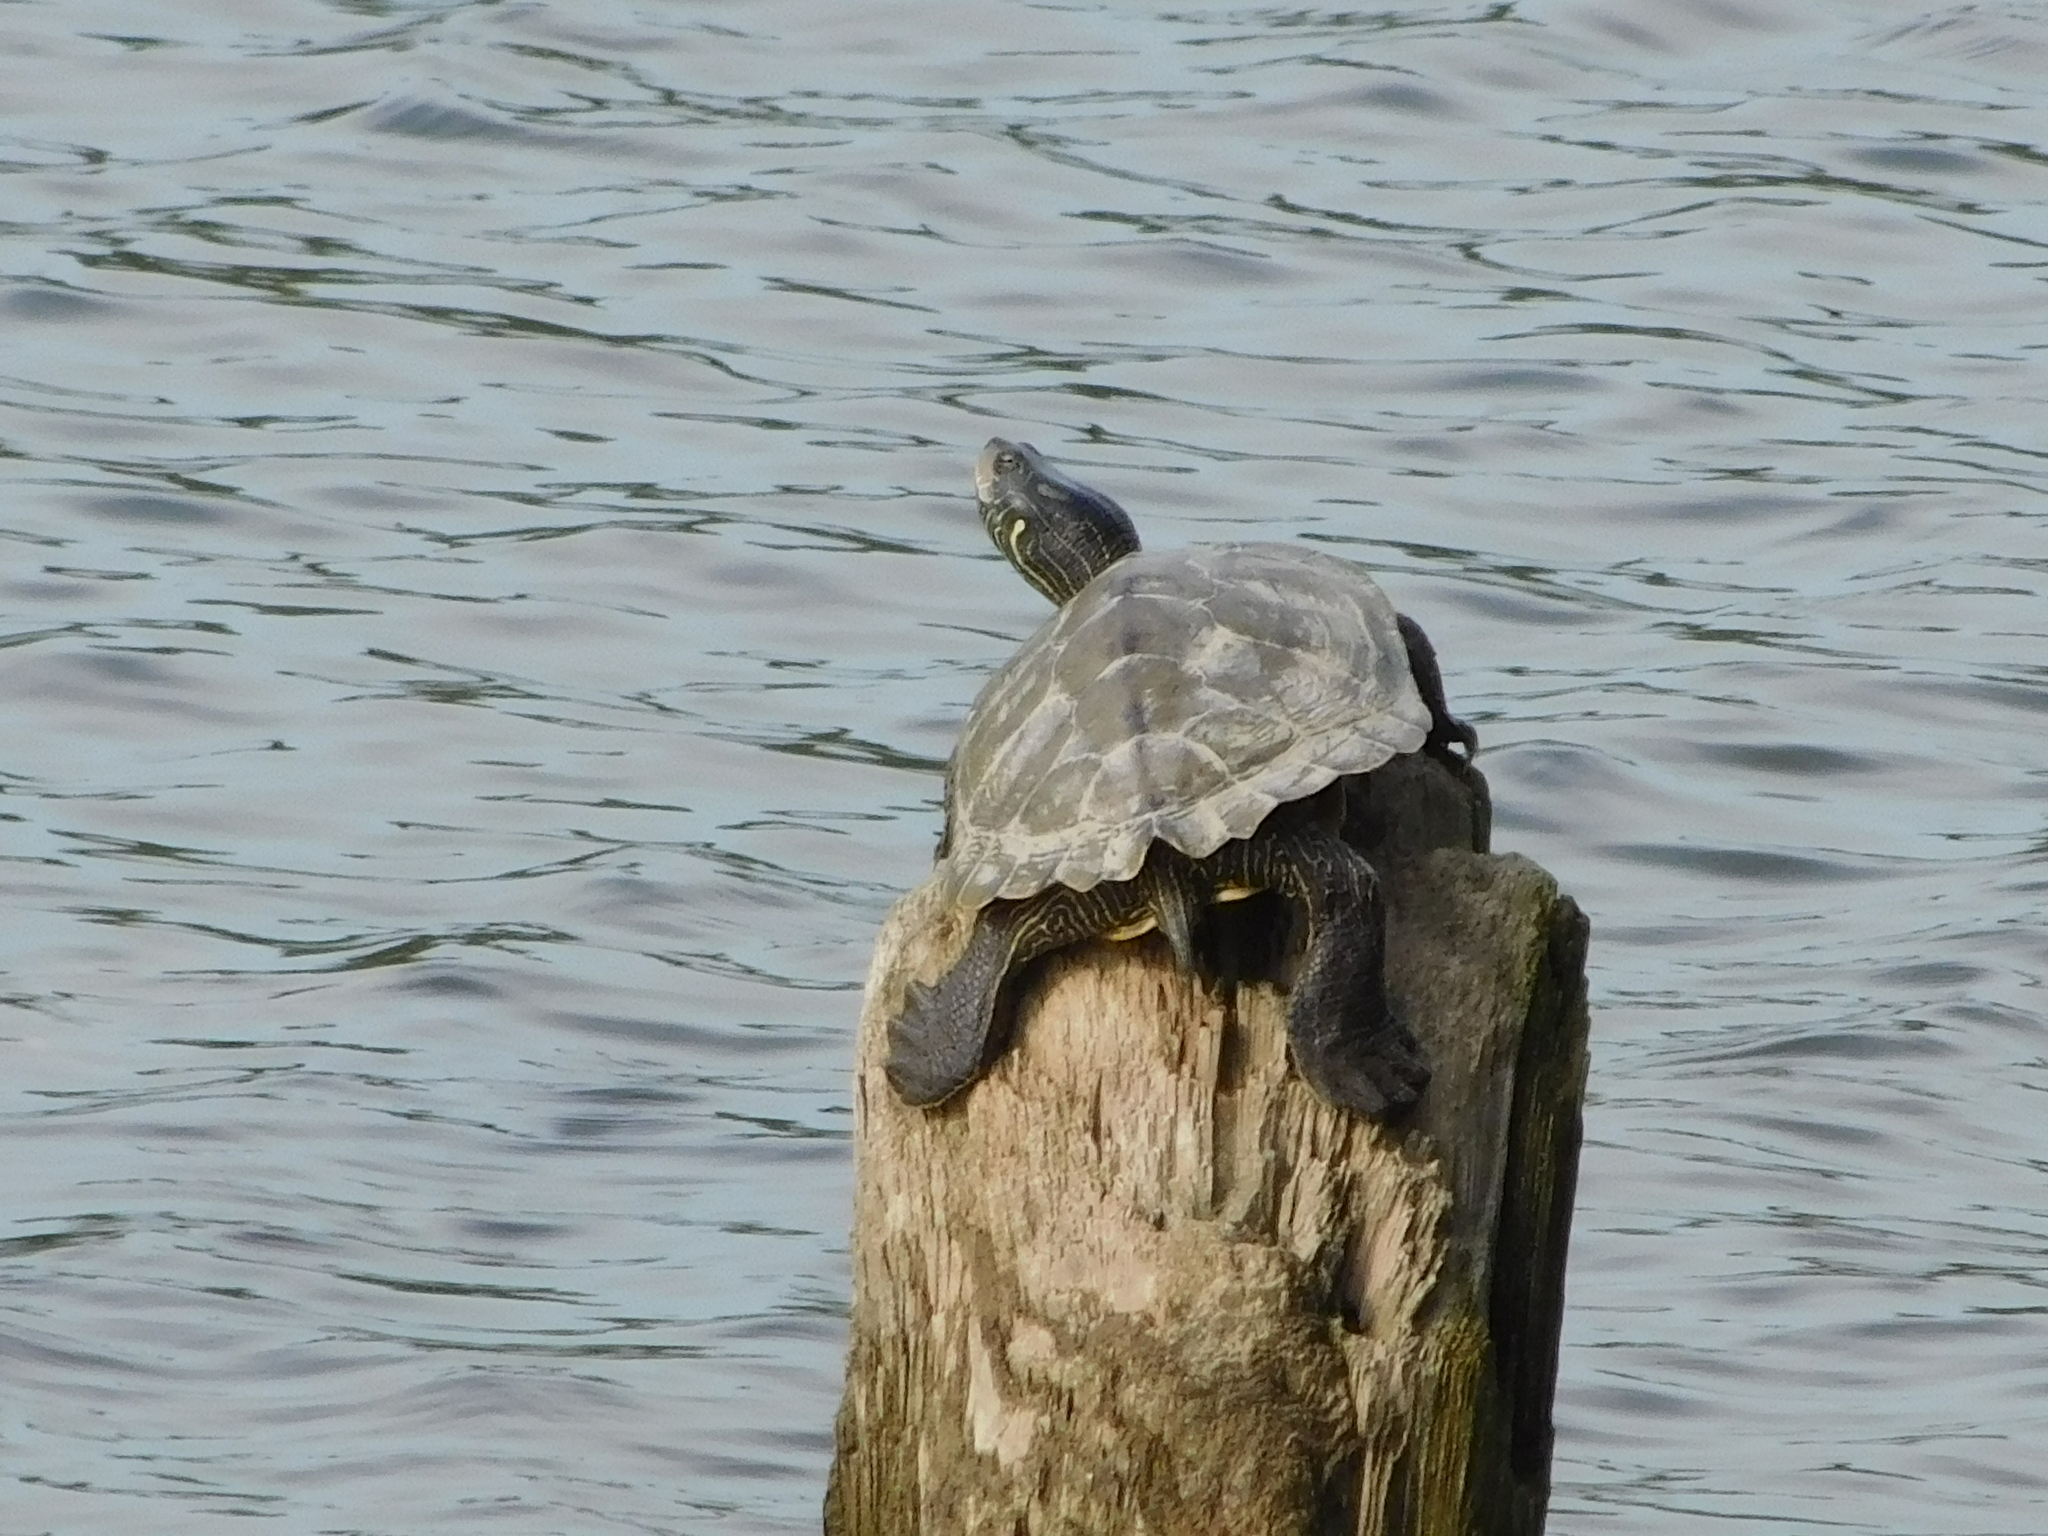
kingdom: Animalia
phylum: Chordata
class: Testudines
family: Emydidae
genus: Graptemys
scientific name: Graptemys geographica
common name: Common map turtle
